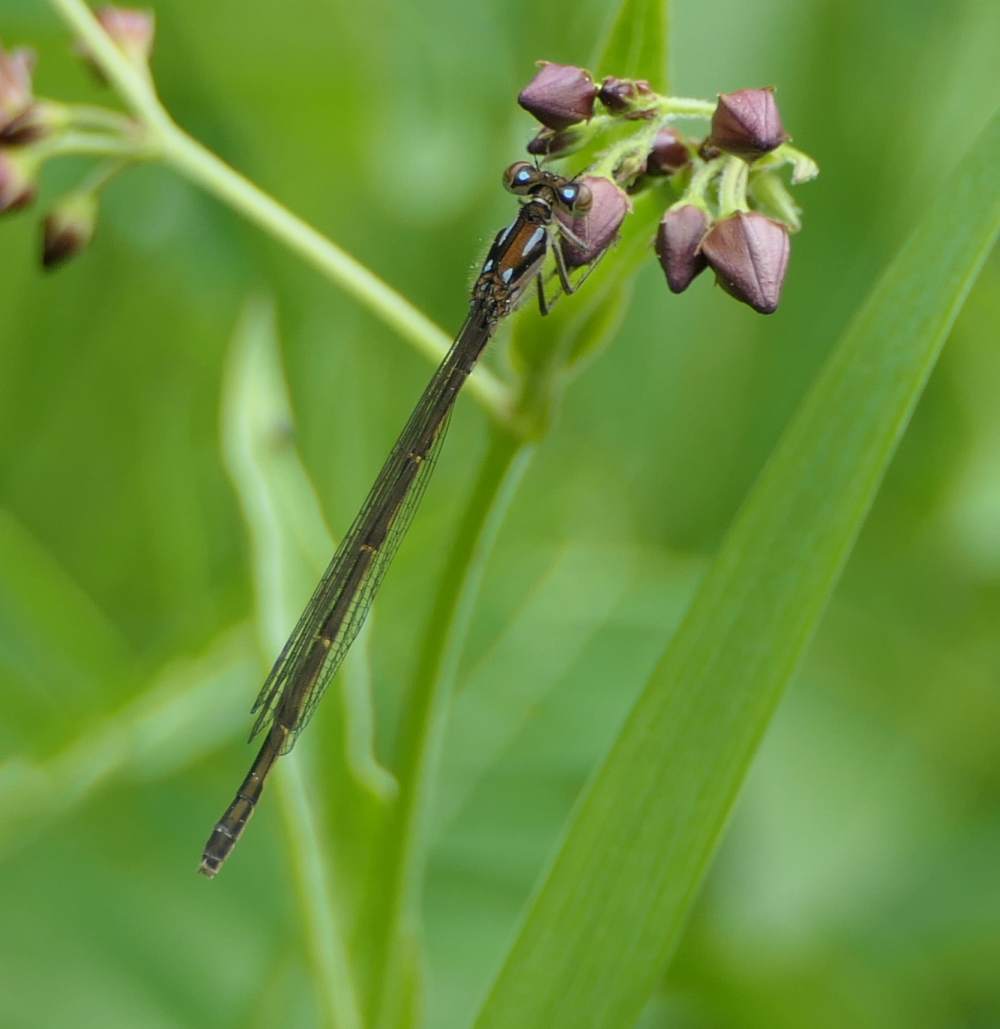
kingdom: Animalia
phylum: Arthropoda
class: Insecta
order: Odonata
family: Coenagrionidae
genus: Ischnura
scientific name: Ischnura posita
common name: Fragile forktail
